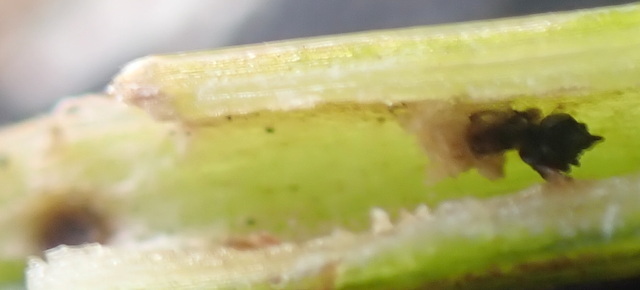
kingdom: Animalia
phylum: Arthropoda
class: Insecta
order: Coleoptera
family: Chrysomelidae
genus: Agasicles
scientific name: Agasicles hygrophila
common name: Alligatorweed flea beetle
